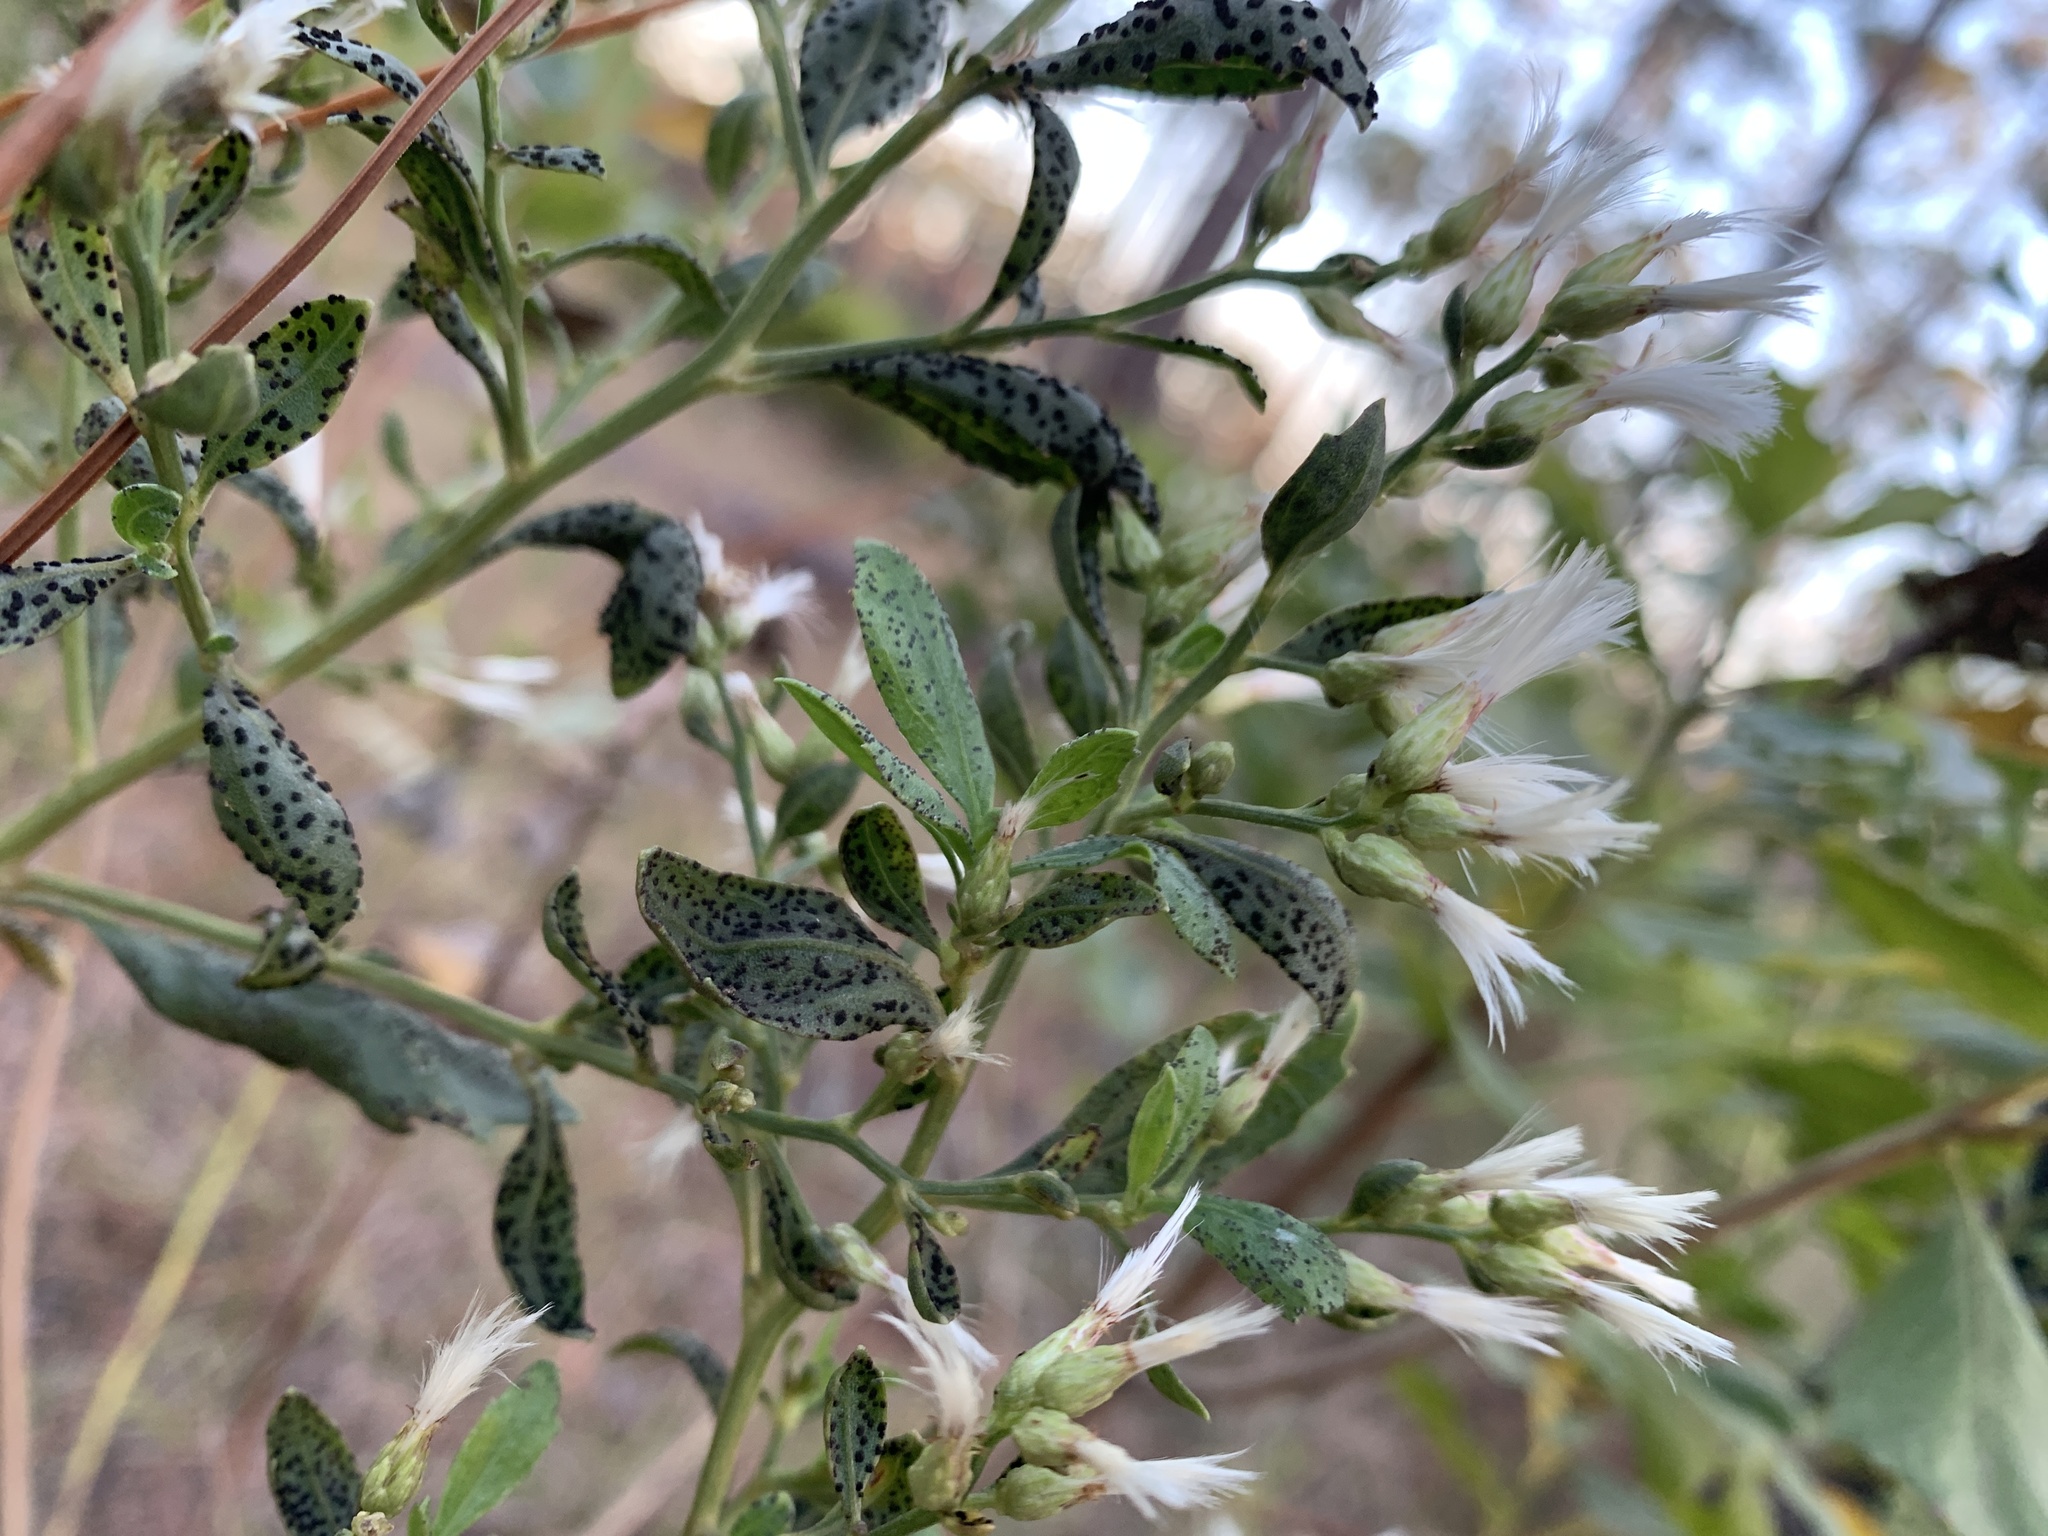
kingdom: Plantae
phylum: Tracheophyta
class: Magnoliopsida
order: Asterales
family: Asteraceae
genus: Baccharis
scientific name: Baccharis halimifolia
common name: Eastern baccharis
